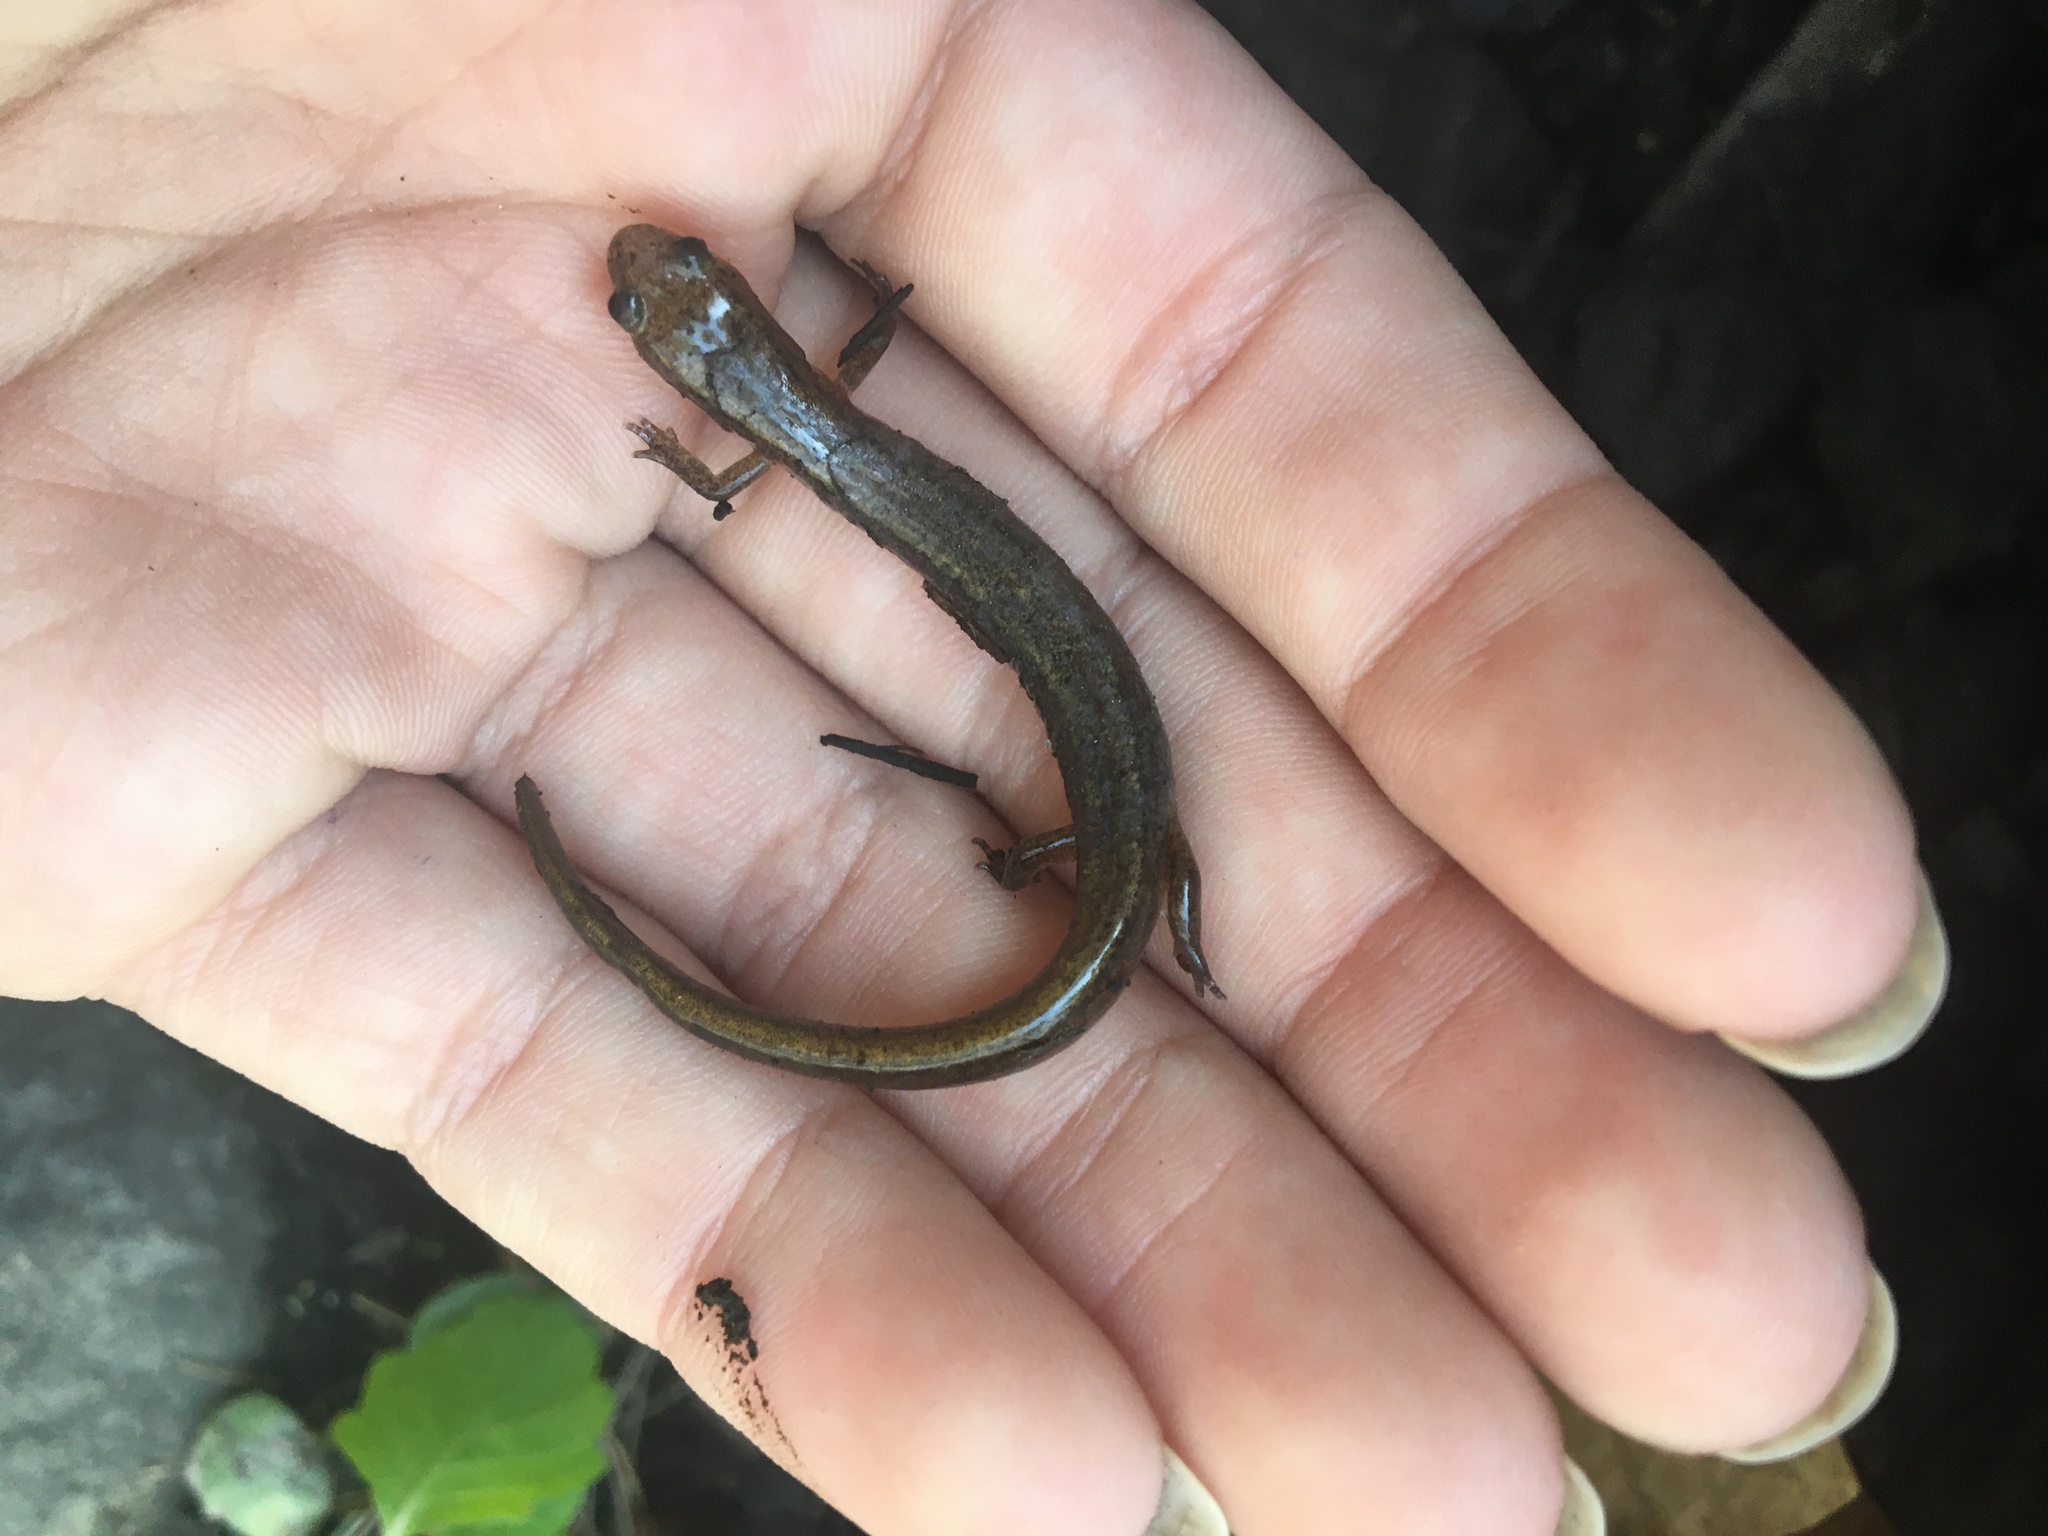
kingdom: Animalia
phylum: Chordata
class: Amphibia
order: Caudata
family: Plethodontidae
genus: Eurycea
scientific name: Eurycea bislineata
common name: Northern two-lined salamander
